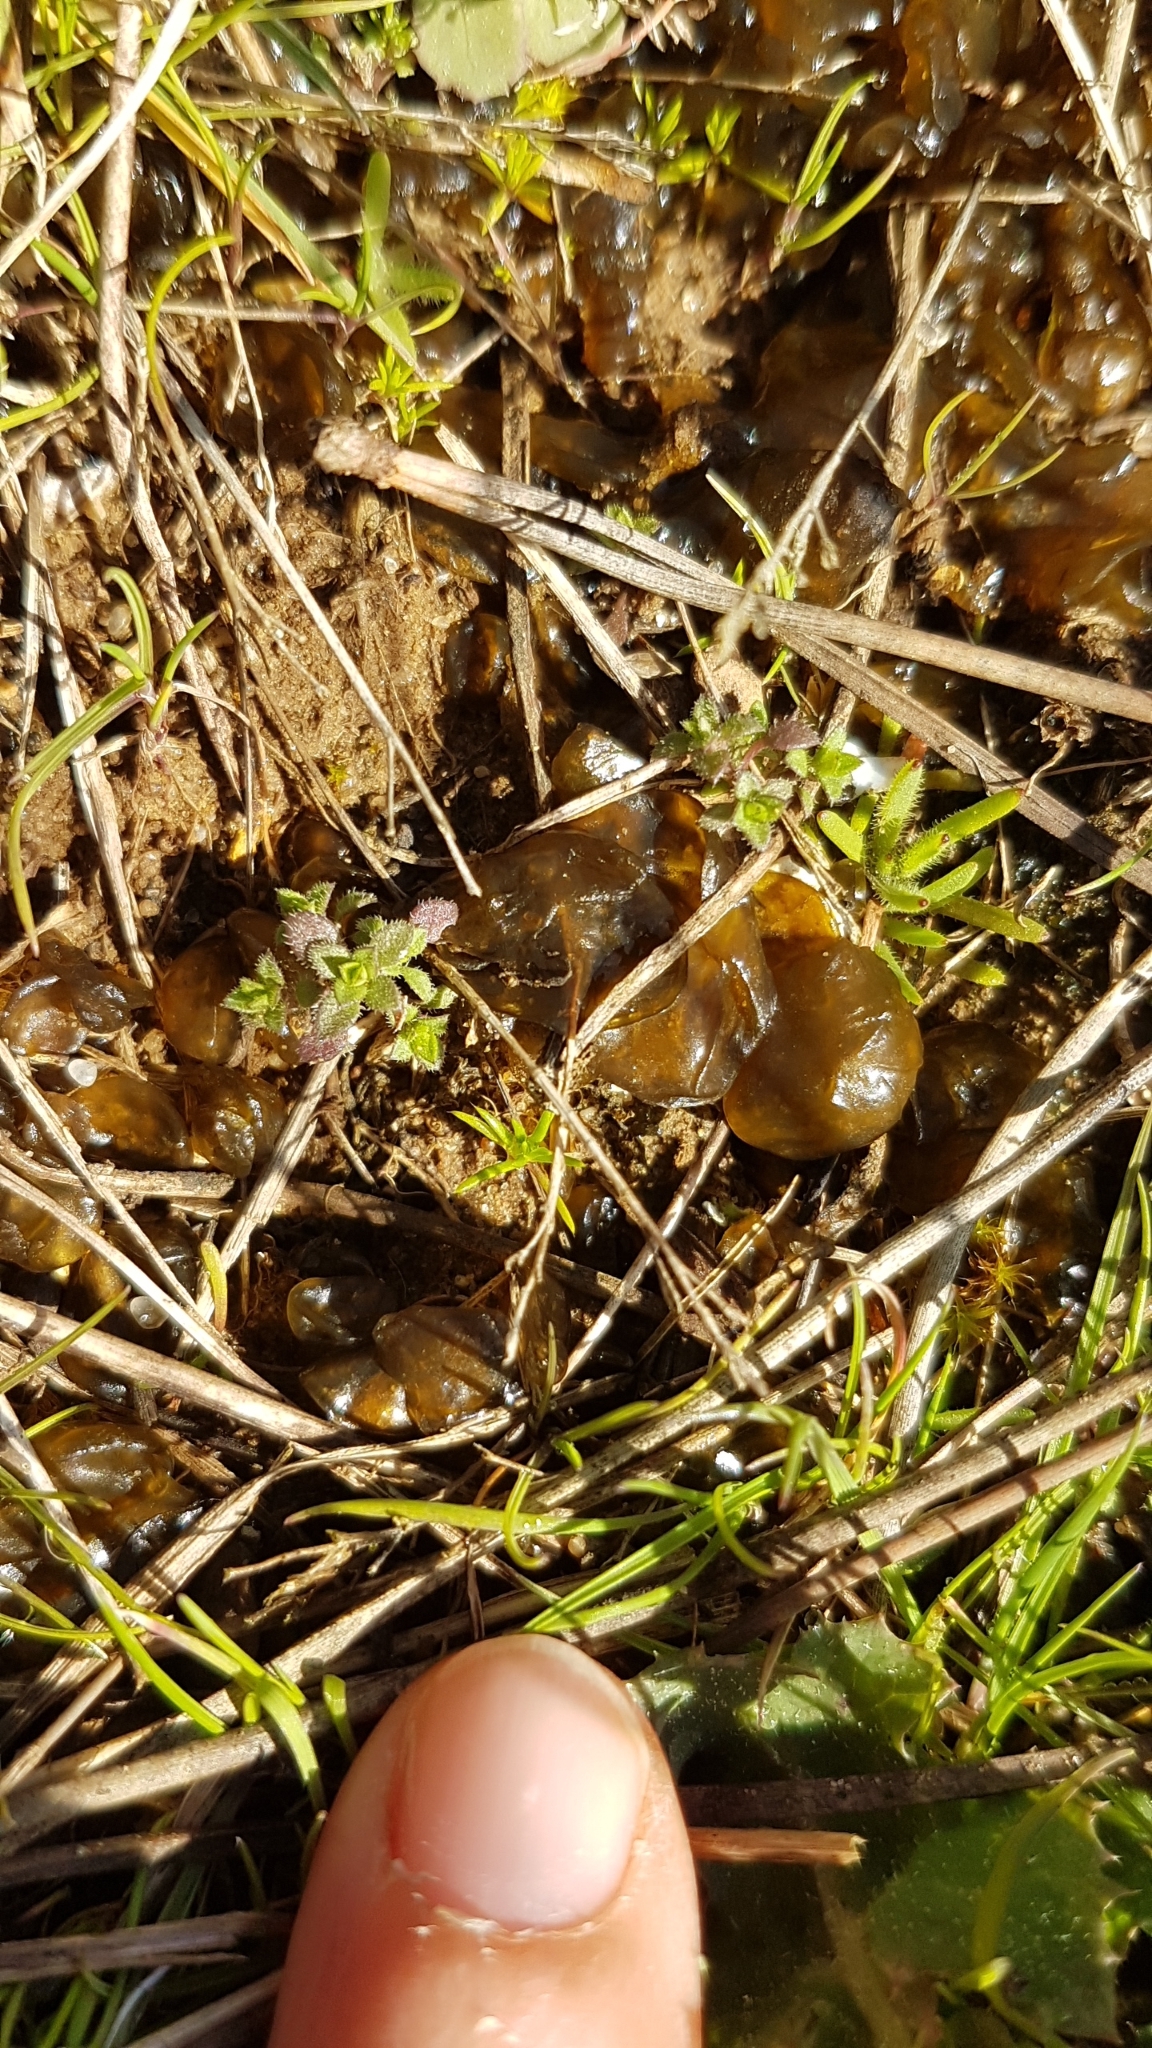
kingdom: Bacteria
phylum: Cyanobacteria
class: Cyanobacteriia
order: Cyanobacteriales
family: Nostocaceae
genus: Nostoc
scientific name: Nostoc commune
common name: Star jelly
